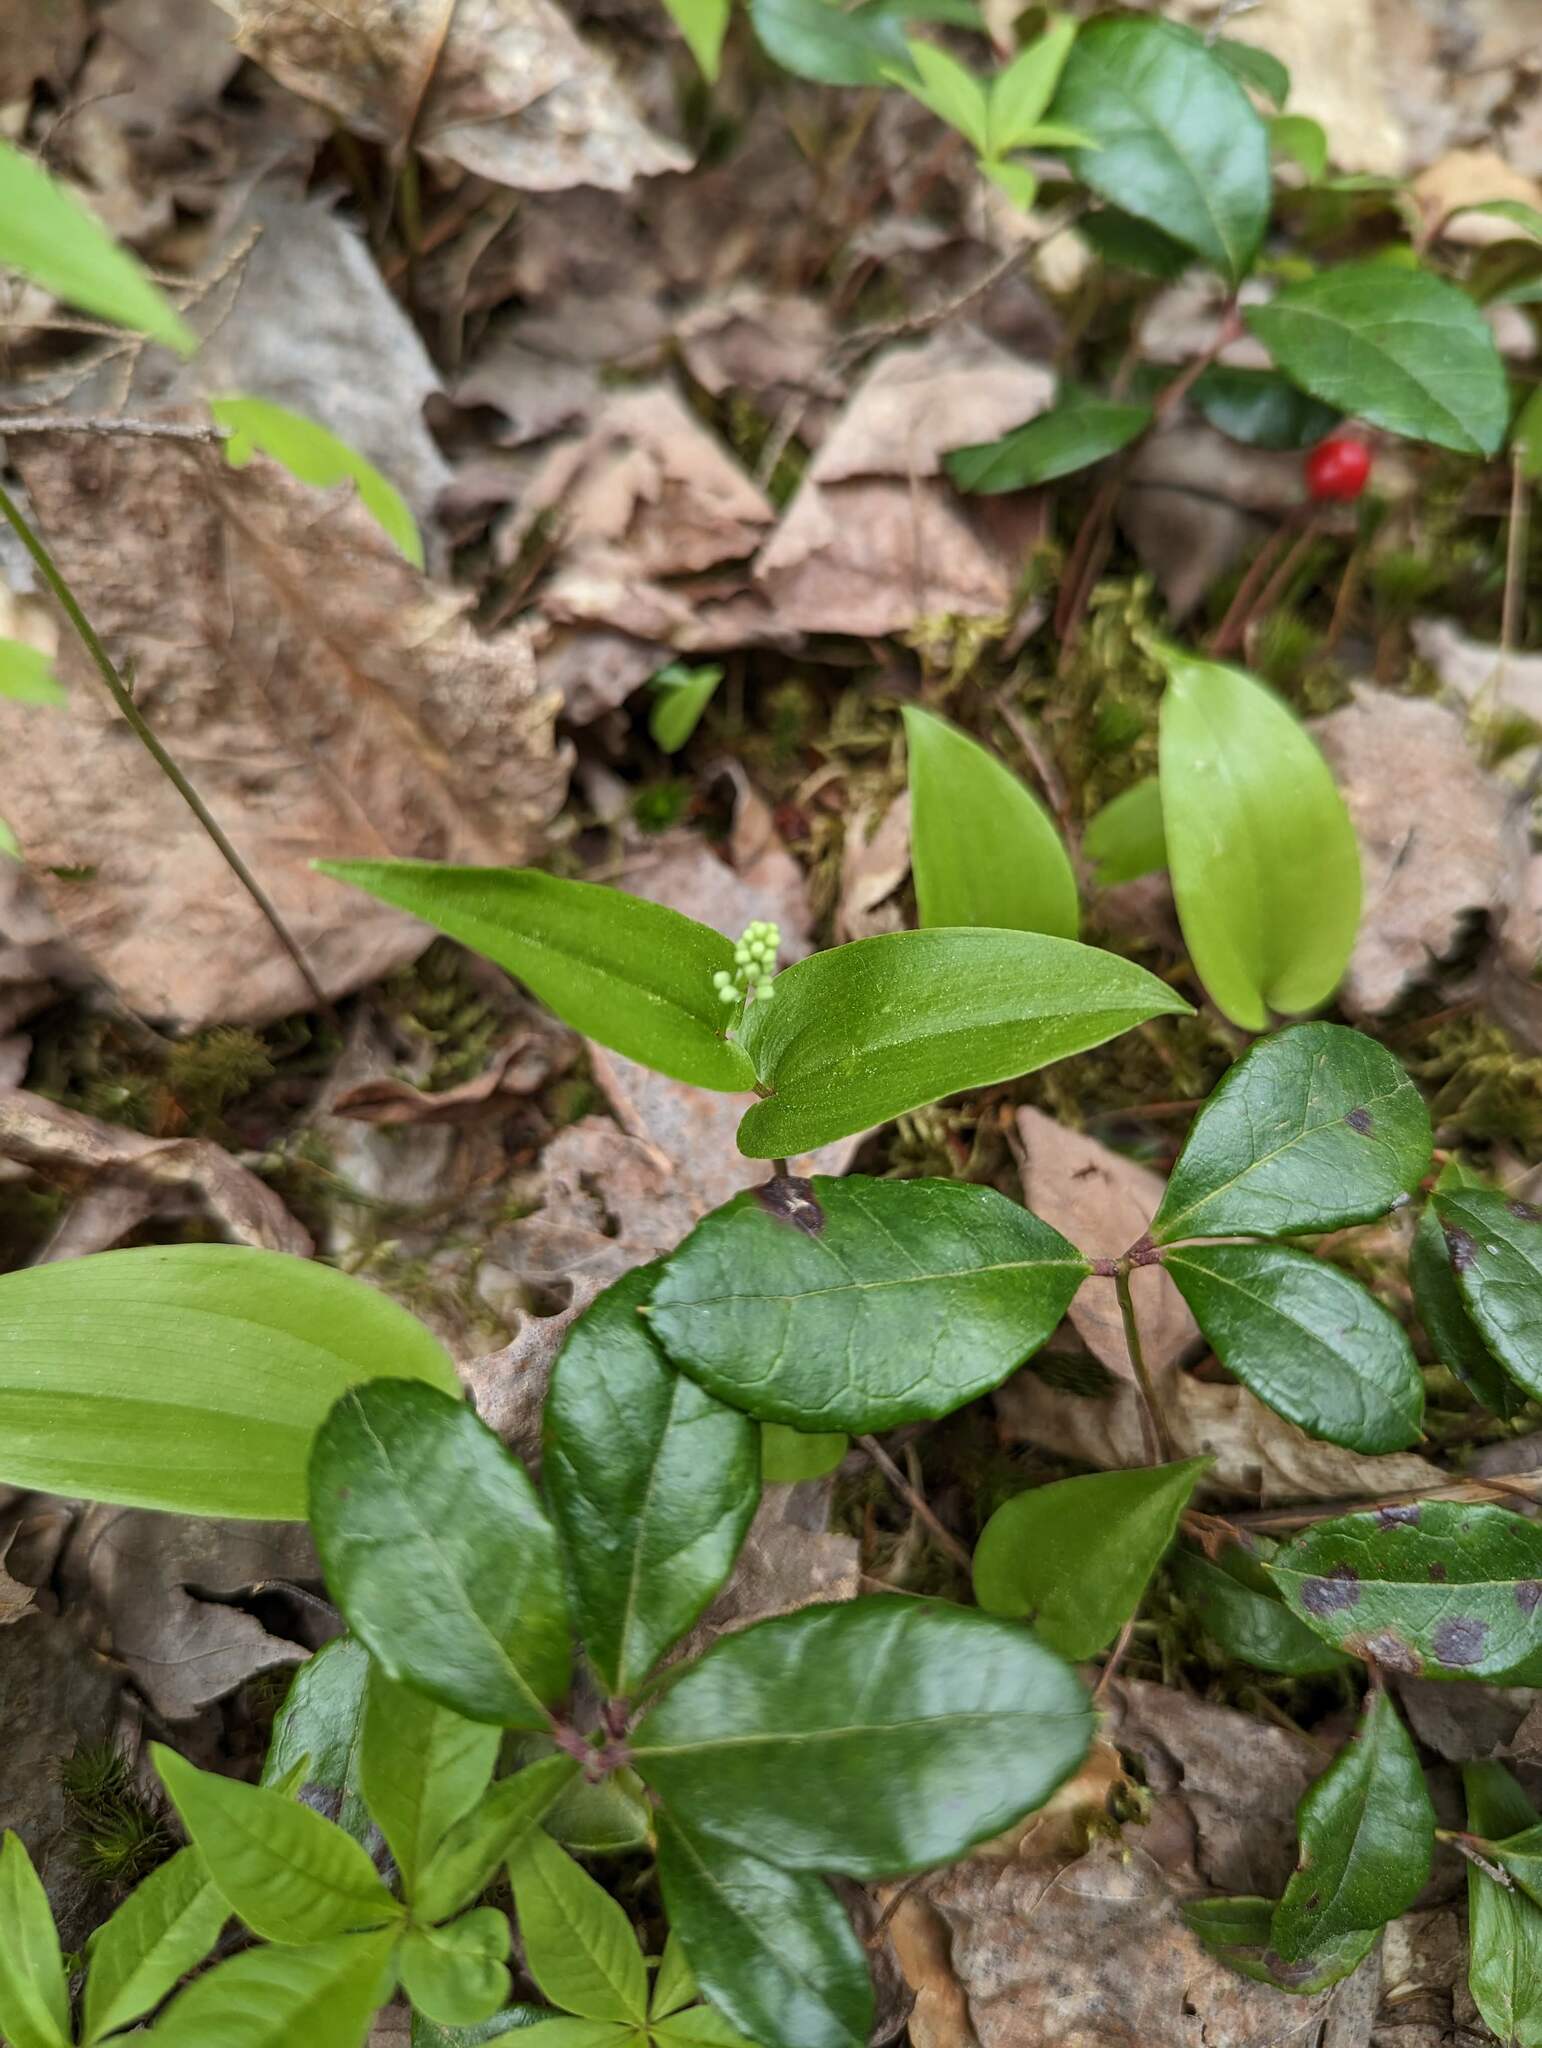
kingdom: Plantae
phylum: Tracheophyta
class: Liliopsida
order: Asparagales
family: Asparagaceae
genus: Maianthemum
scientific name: Maianthemum canadense
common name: False lily-of-the-valley
